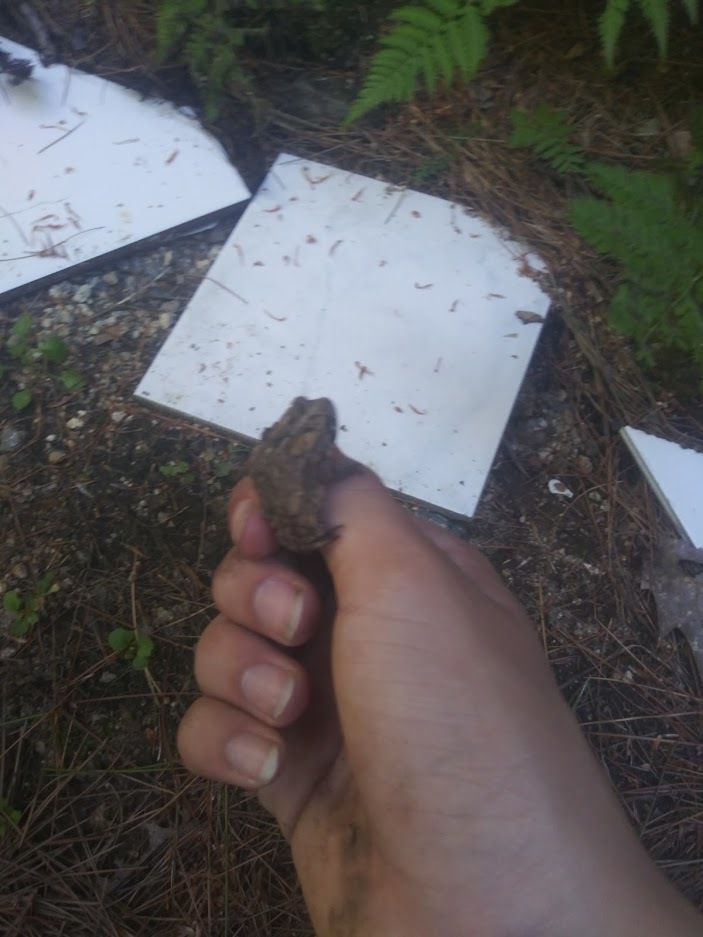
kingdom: Animalia
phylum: Chordata
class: Amphibia
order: Anura
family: Bufonidae
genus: Anaxyrus
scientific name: Anaxyrus americanus
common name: American toad
